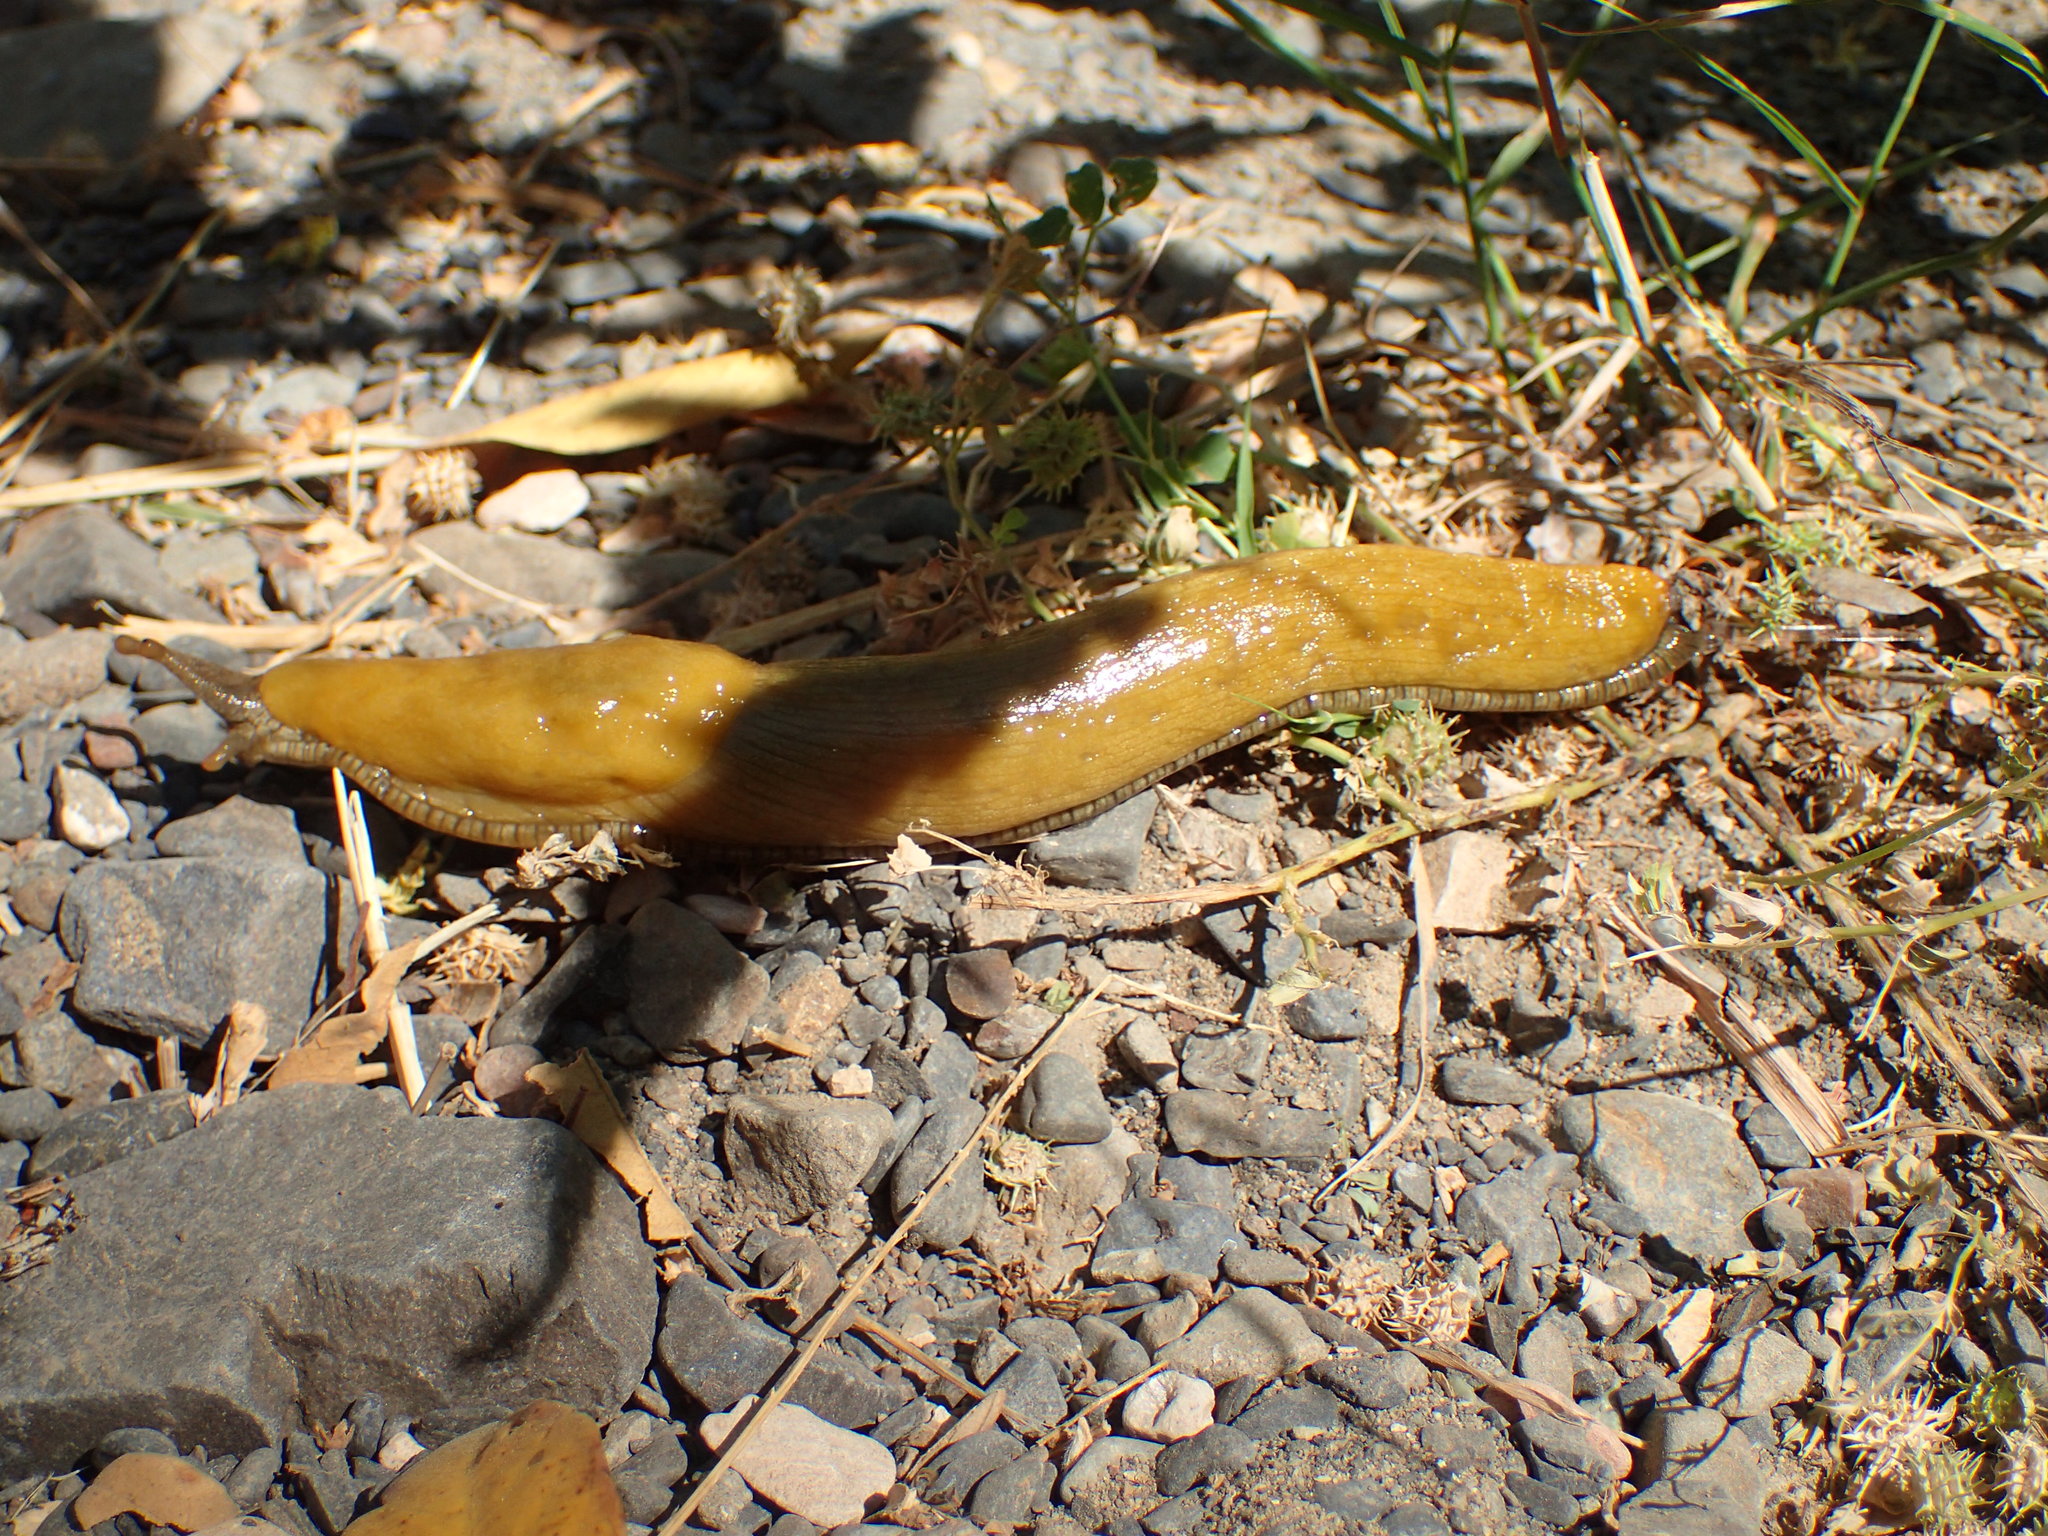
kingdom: Animalia
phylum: Mollusca
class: Gastropoda
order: Stylommatophora
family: Ariolimacidae
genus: Ariolimax
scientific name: Ariolimax stramineus
